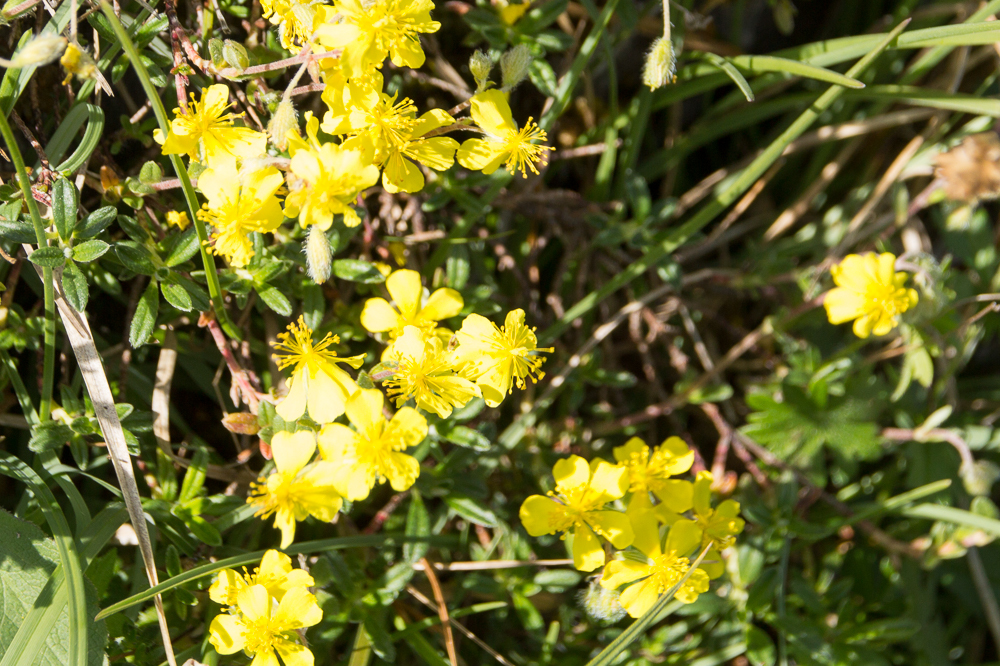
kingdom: Plantae
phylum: Tracheophyta
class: Magnoliopsida
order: Malvales
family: Cistaceae
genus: Helianthemum
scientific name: Helianthemum canum
